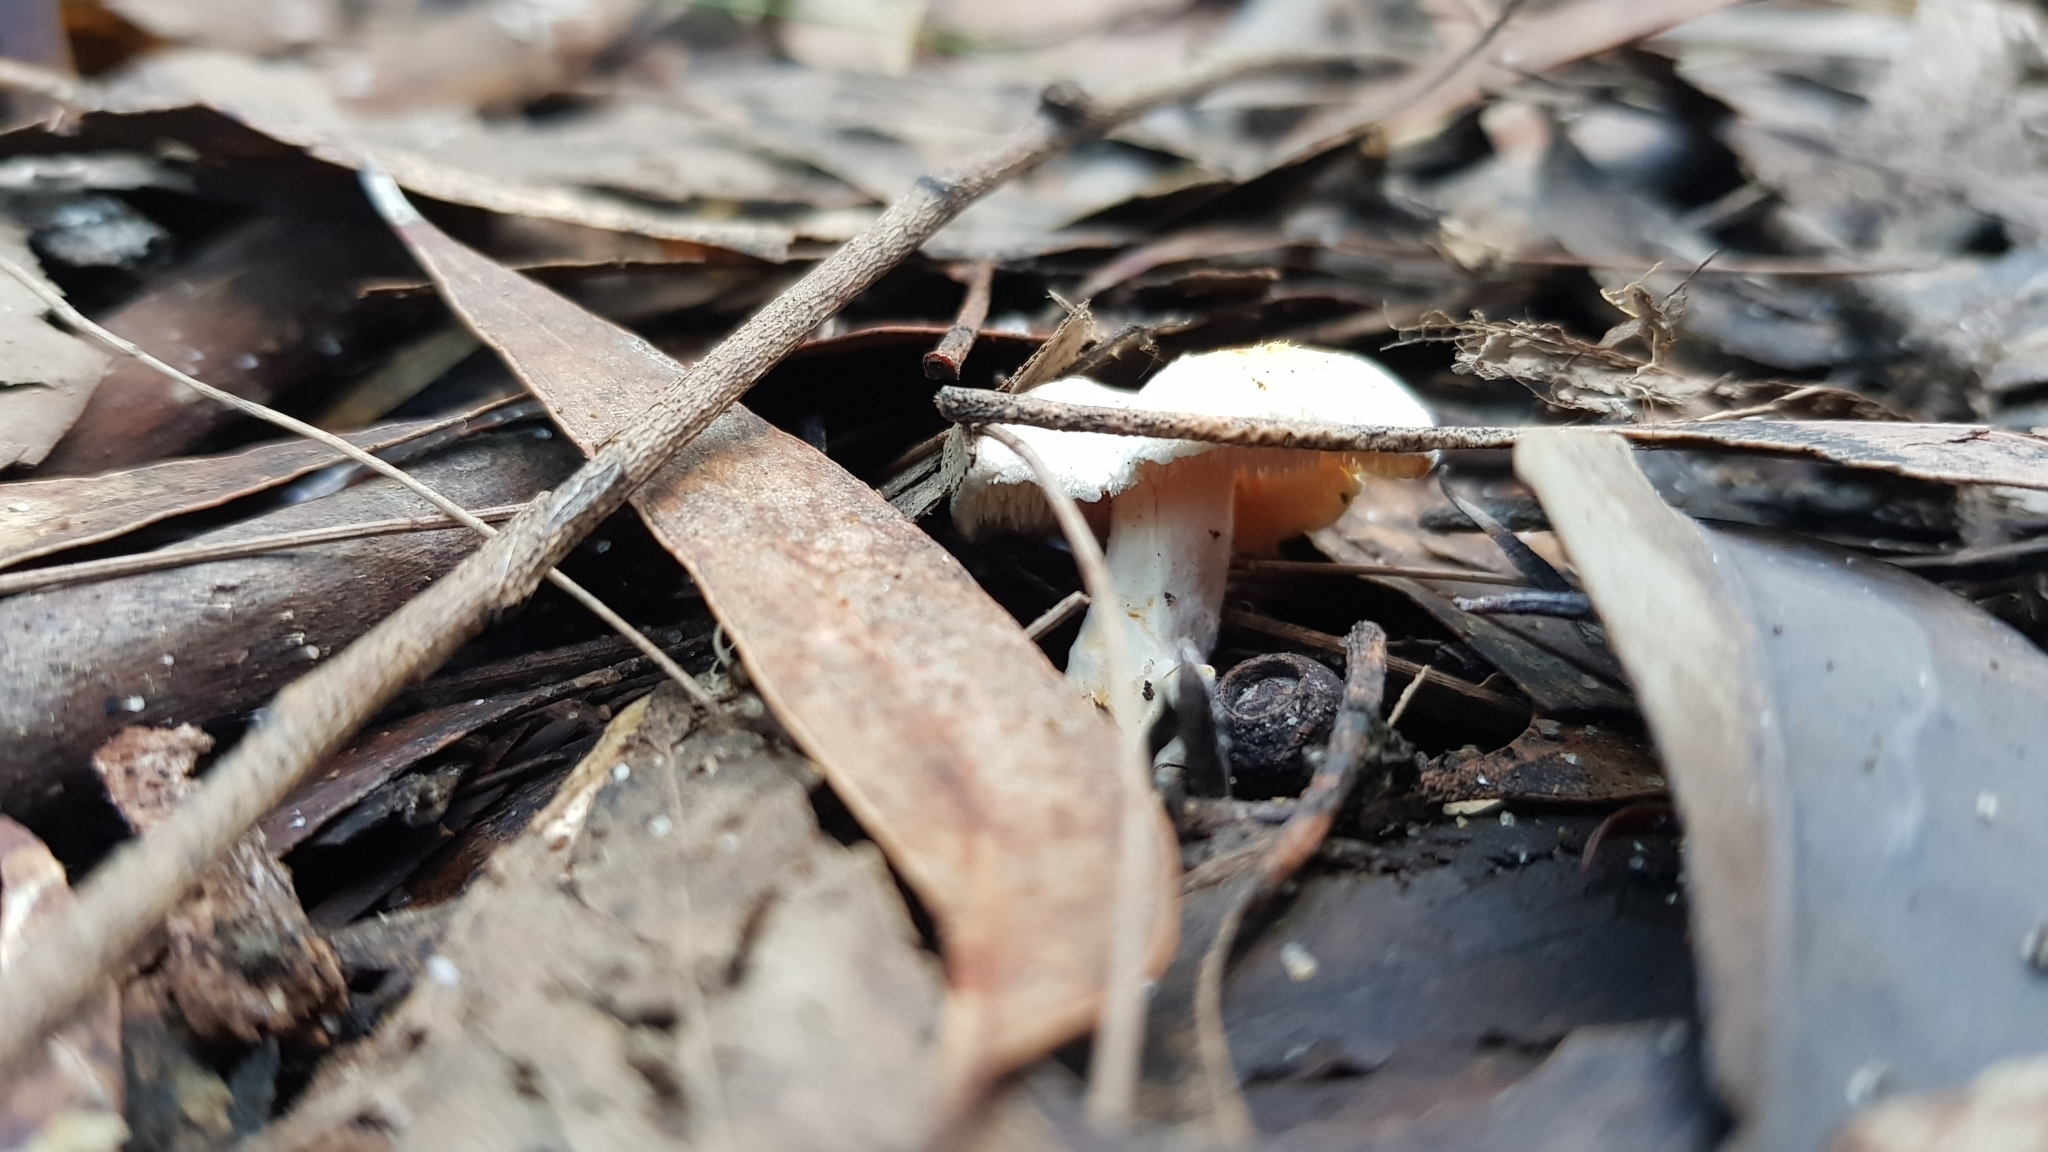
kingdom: Fungi
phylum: Basidiomycota
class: Agaricomycetes
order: Cantharellales
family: Hydnaceae
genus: Hydnum
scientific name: Hydnum ambustum
